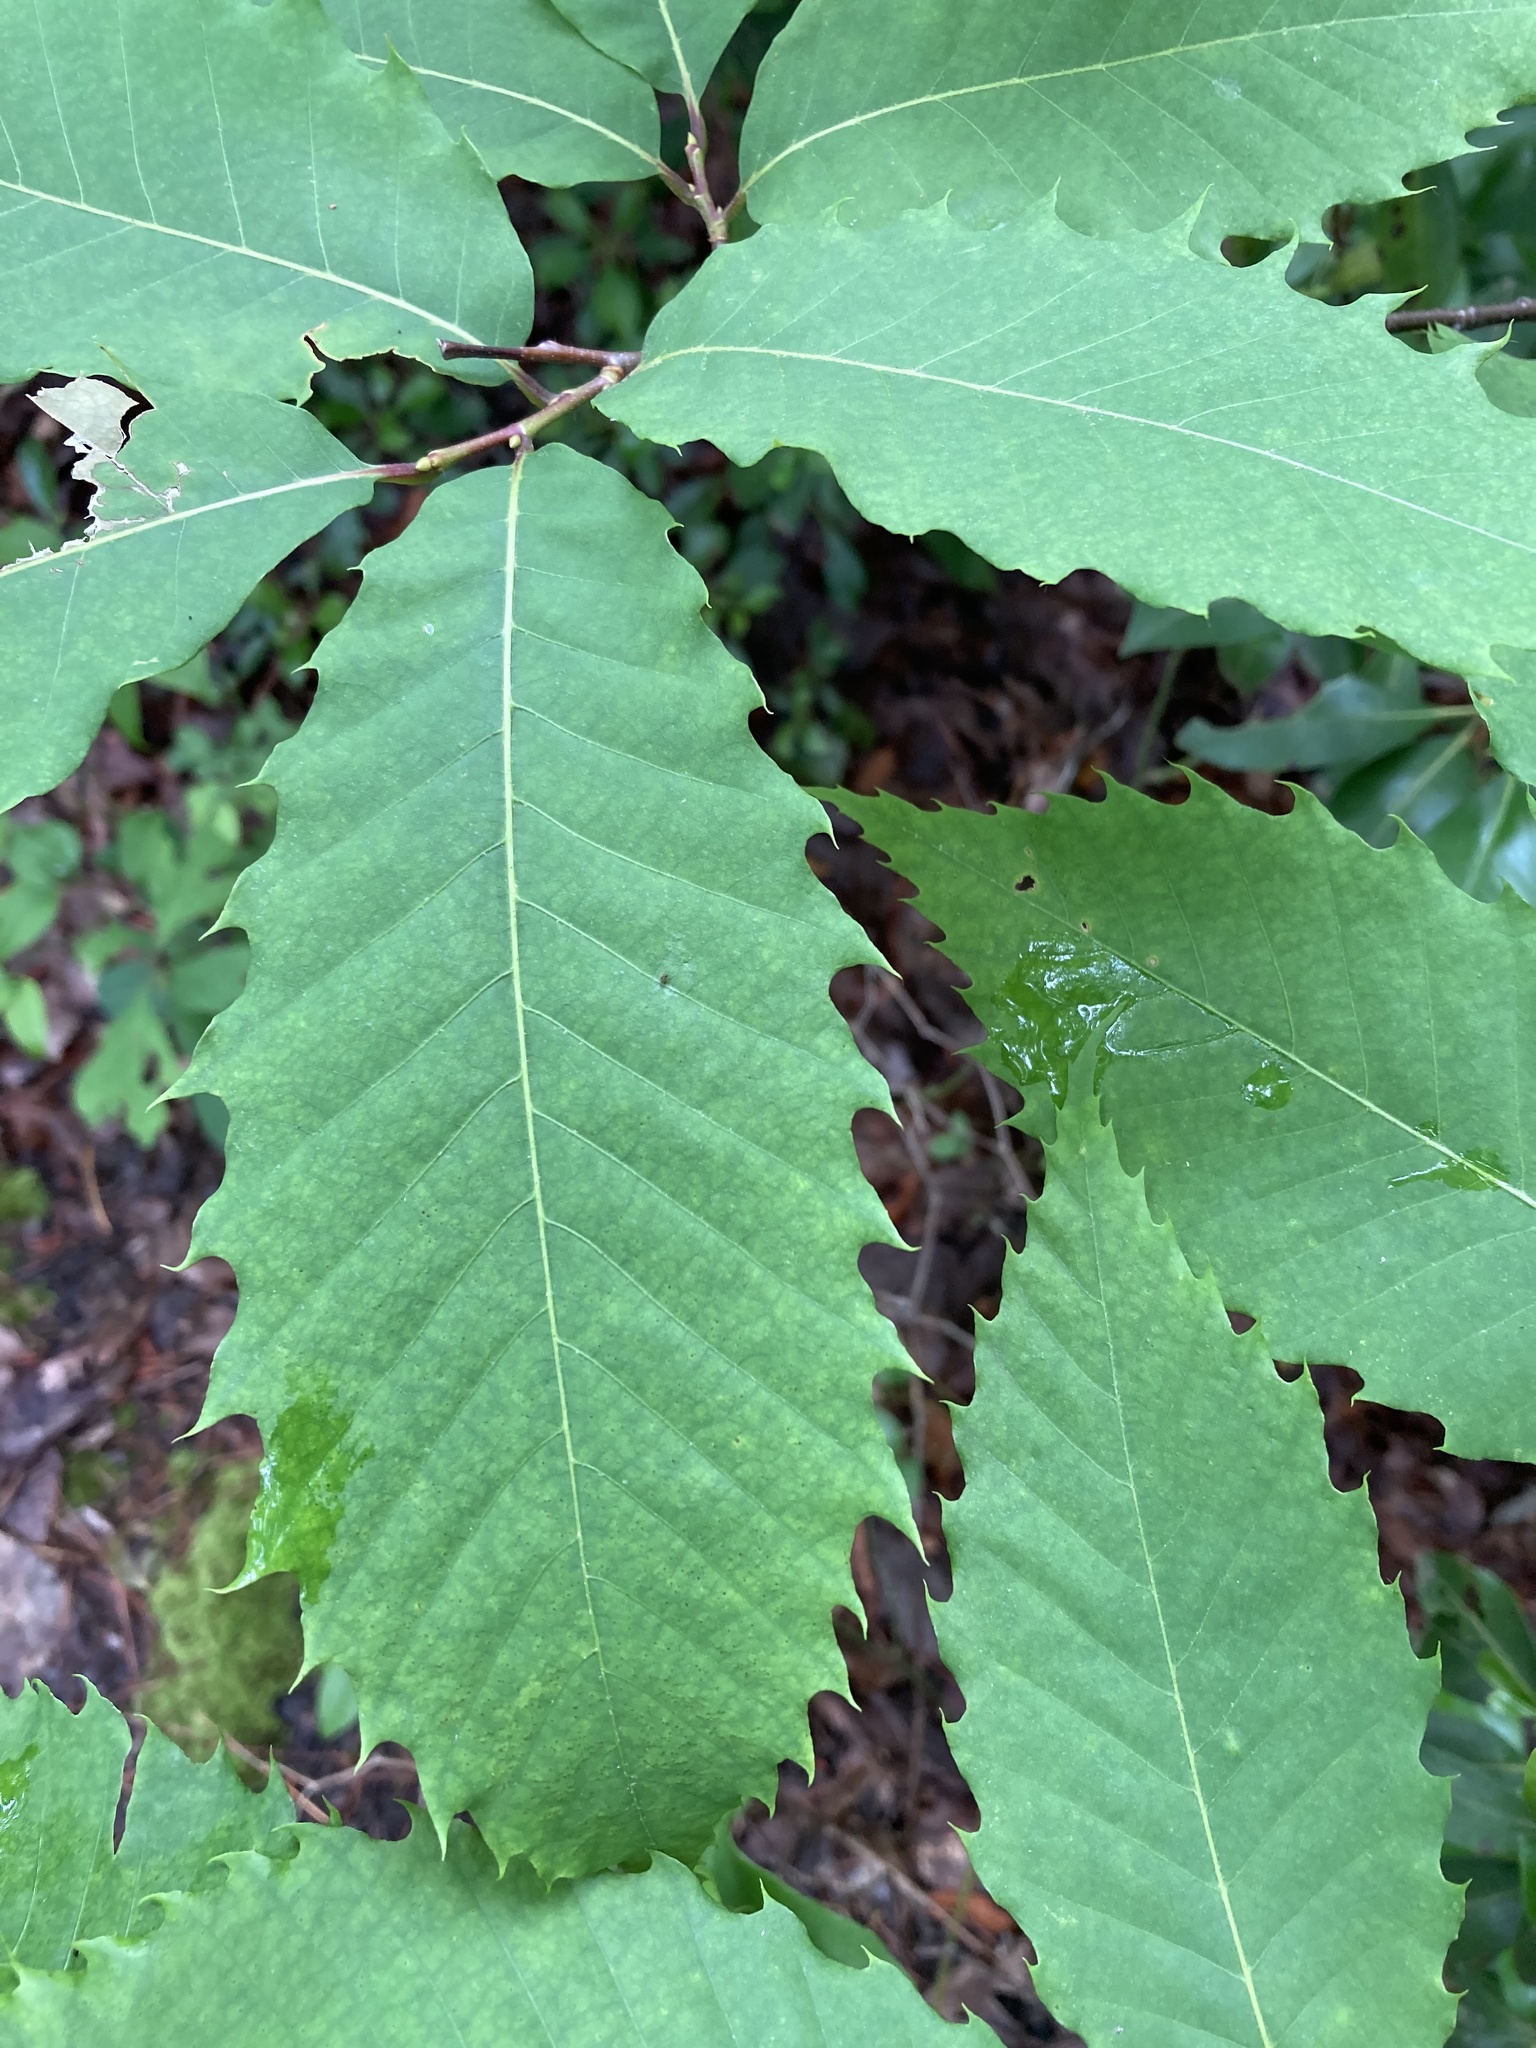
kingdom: Plantae
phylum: Tracheophyta
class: Magnoliopsida
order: Fagales
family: Fagaceae
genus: Castanea
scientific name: Castanea dentata
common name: American chestnut
